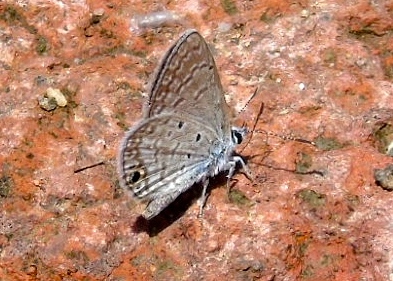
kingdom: Animalia
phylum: Arthropoda
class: Insecta
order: Lepidoptera
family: Lycaenidae
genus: Hemiargus
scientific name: Hemiargus ceraunus
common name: Ceraunus blue
